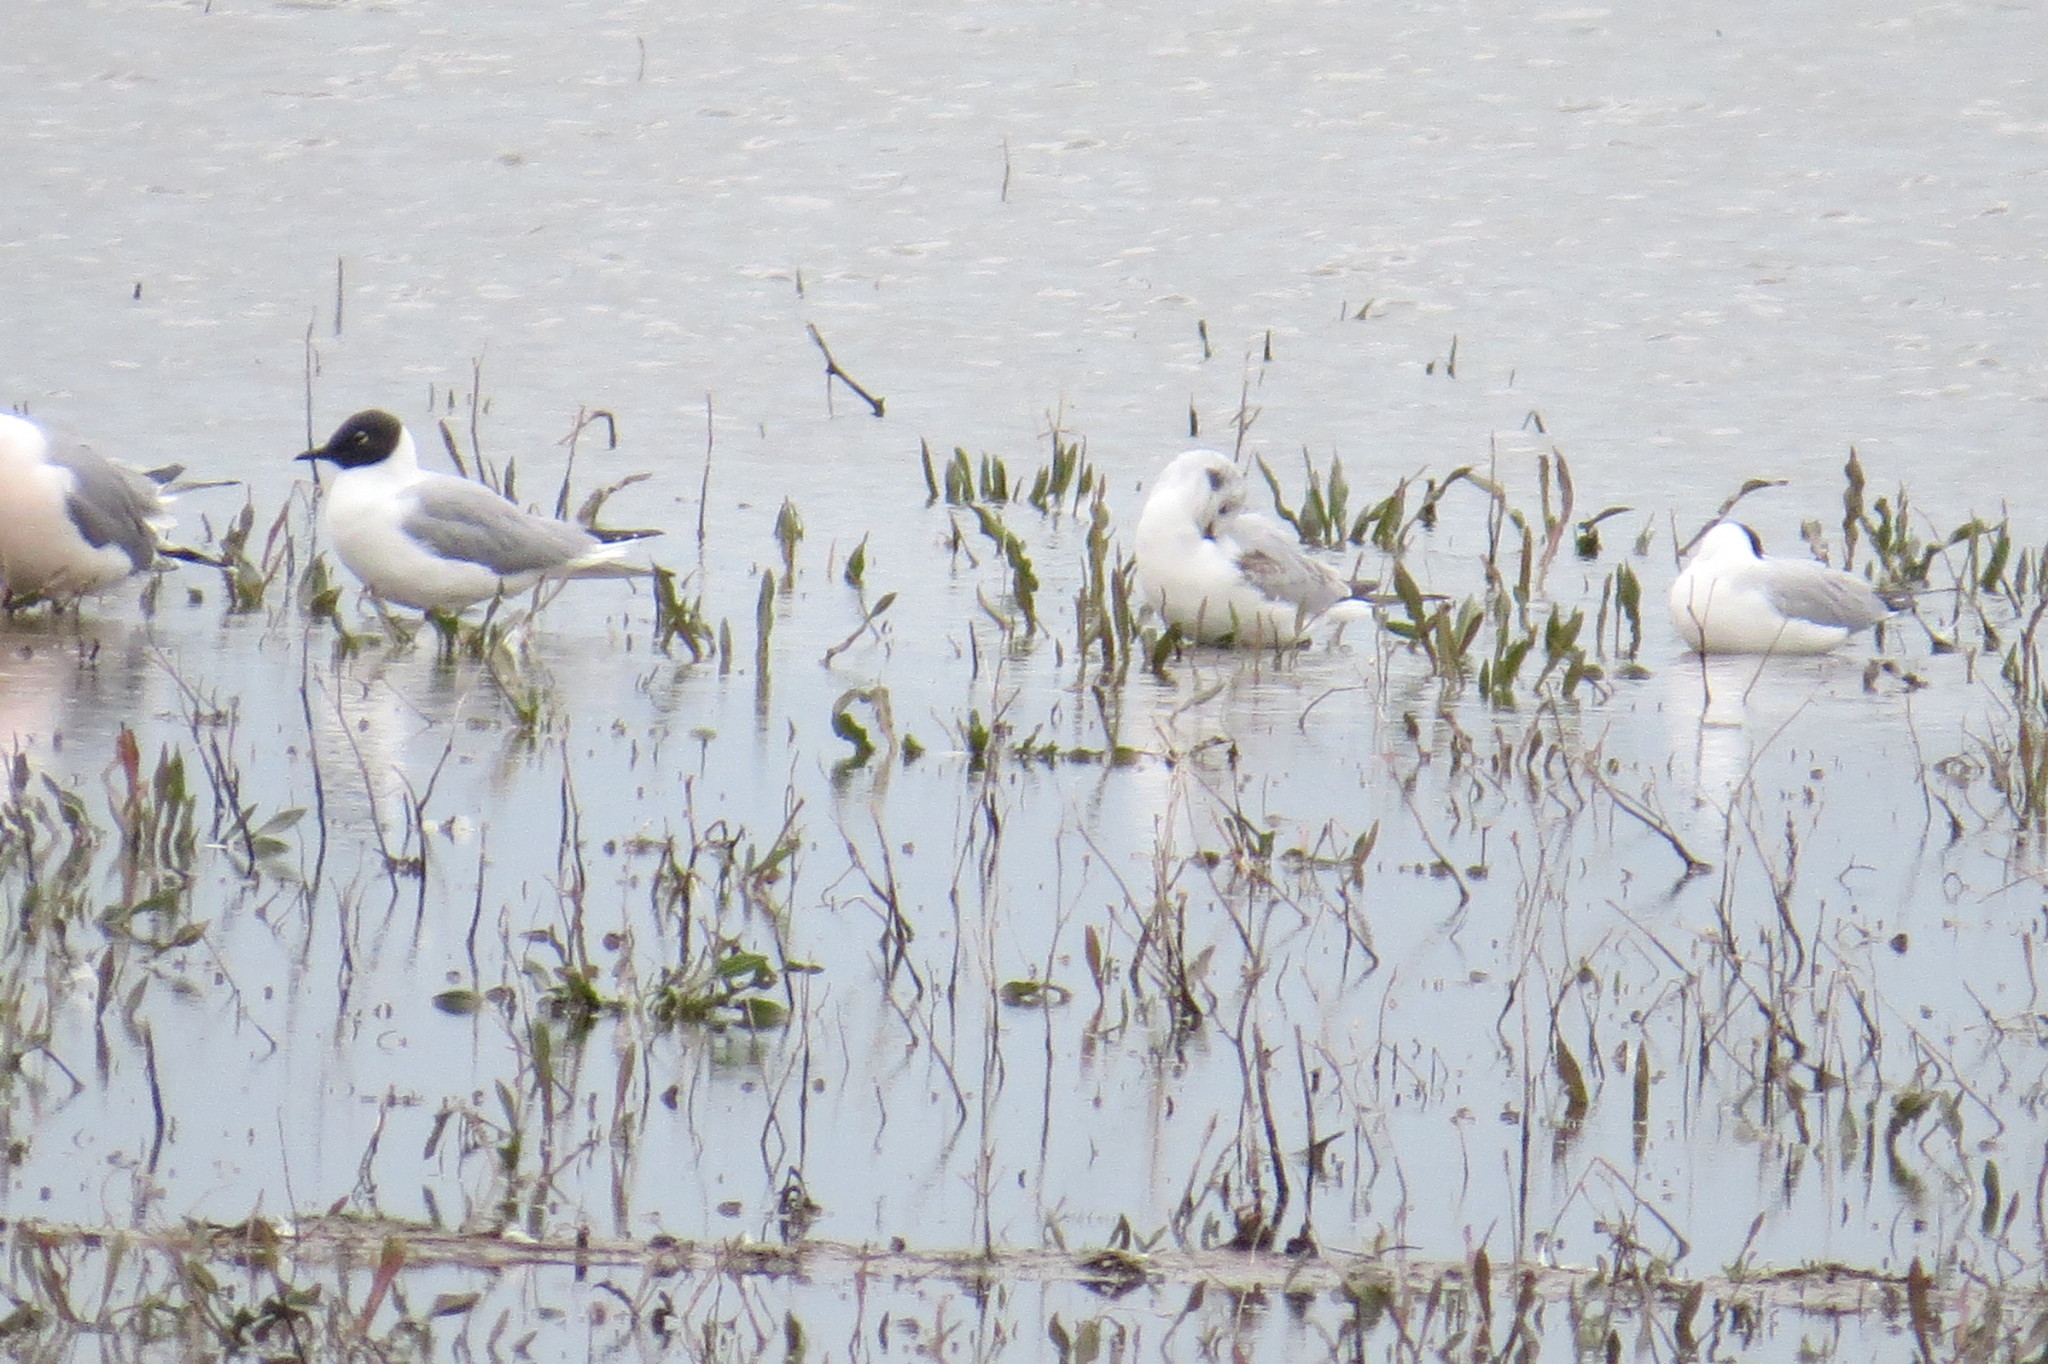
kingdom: Animalia
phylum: Chordata
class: Aves
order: Charadriiformes
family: Laridae
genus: Chroicocephalus
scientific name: Chroicocephalus philadelphia
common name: Bonaparte's gull
